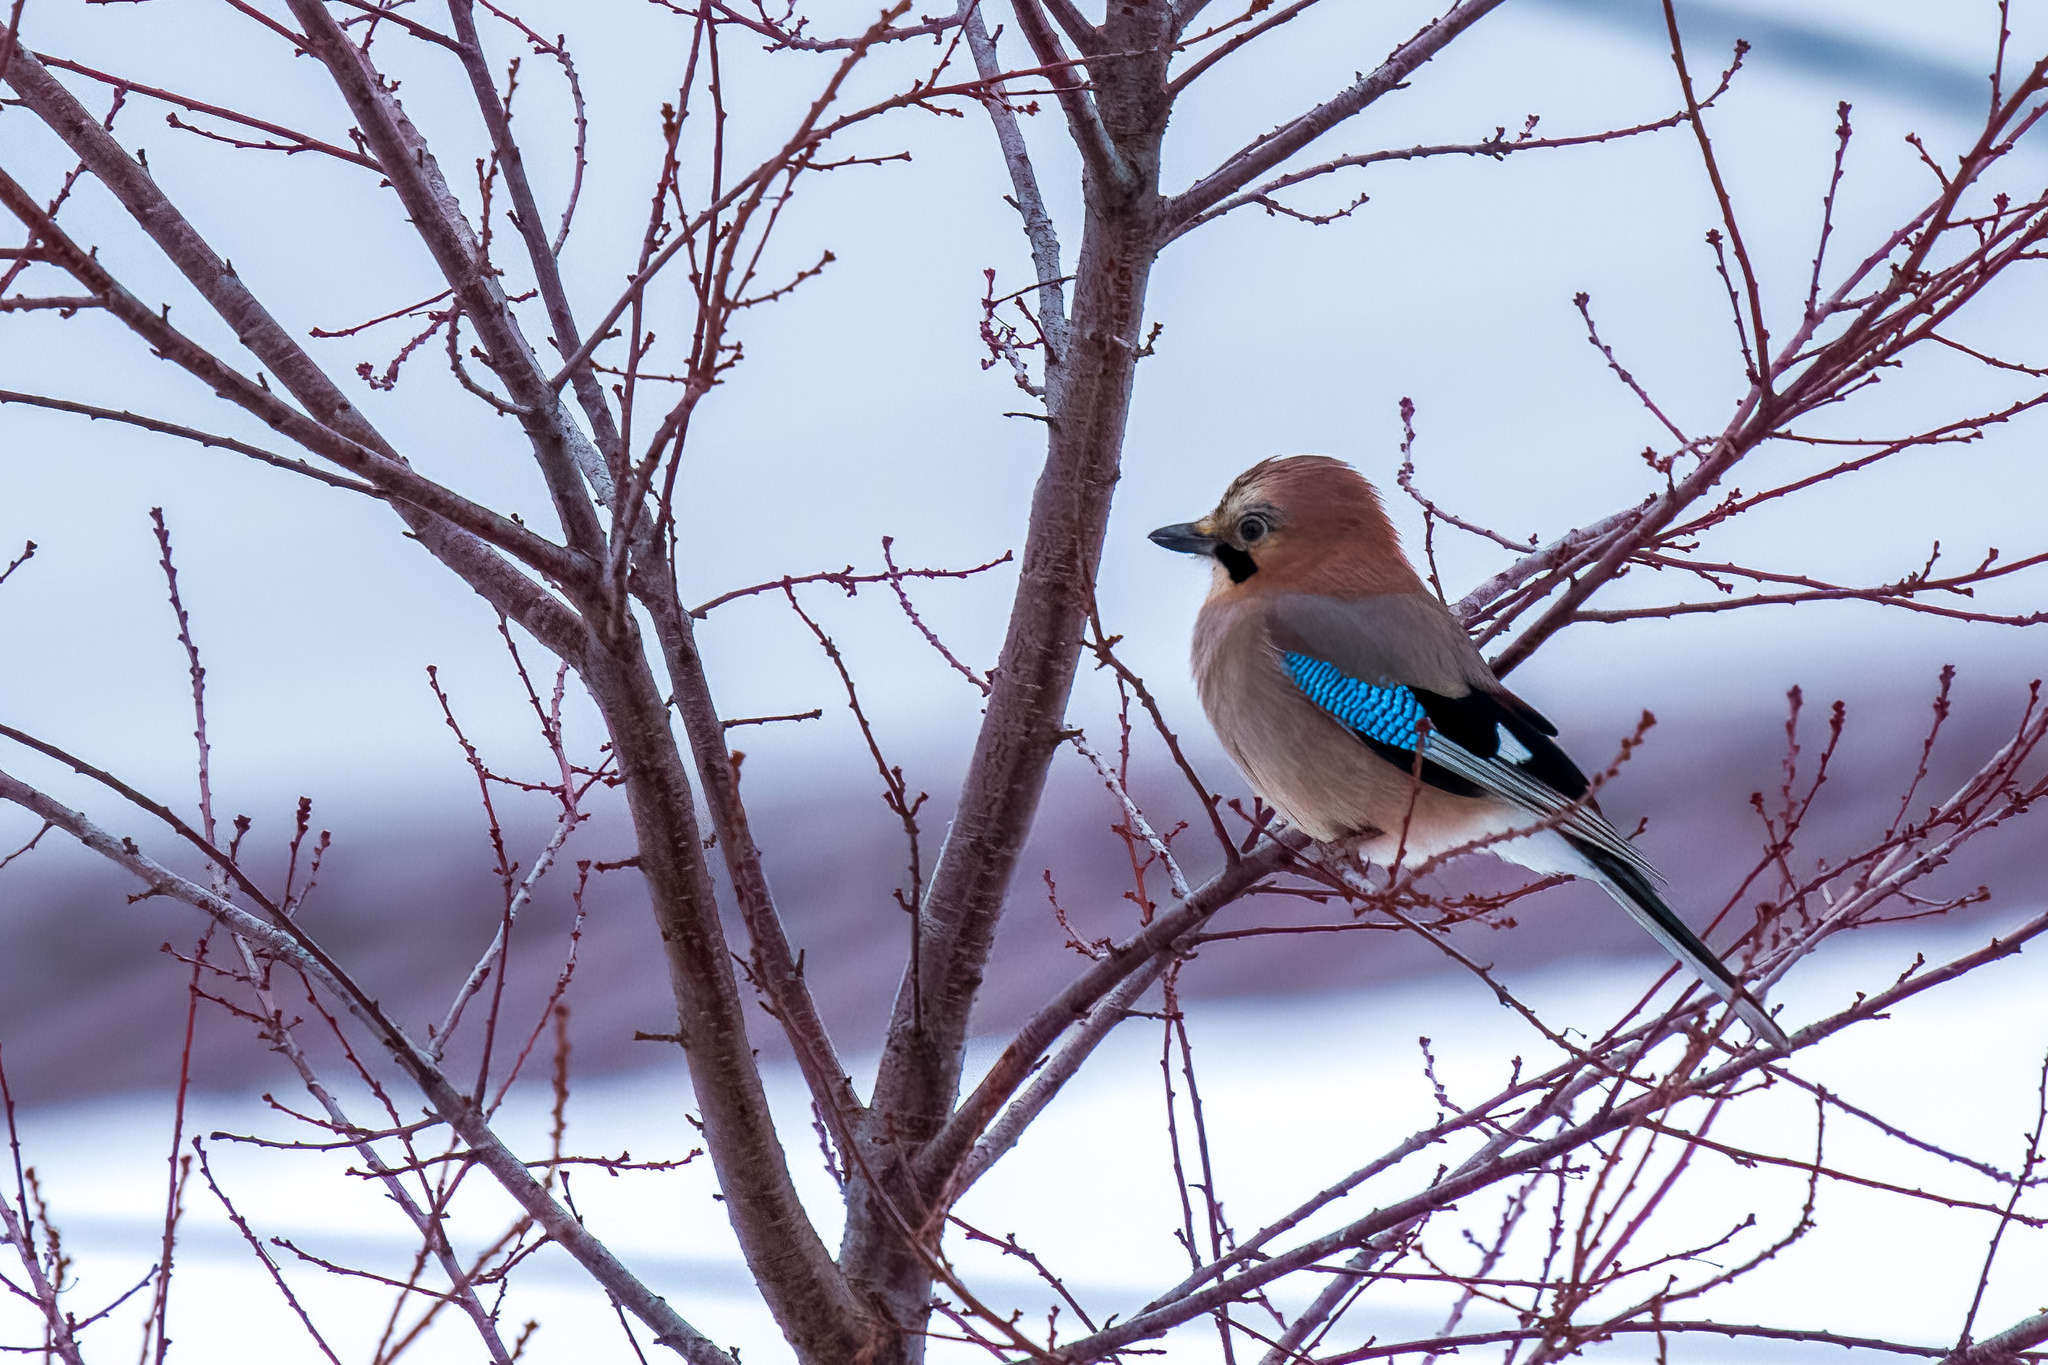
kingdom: Animalia
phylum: Chordata
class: Aves
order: Passeriformes
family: Corvidae
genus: Garrulus
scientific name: Garrulus glandarius
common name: Eurasian jay
